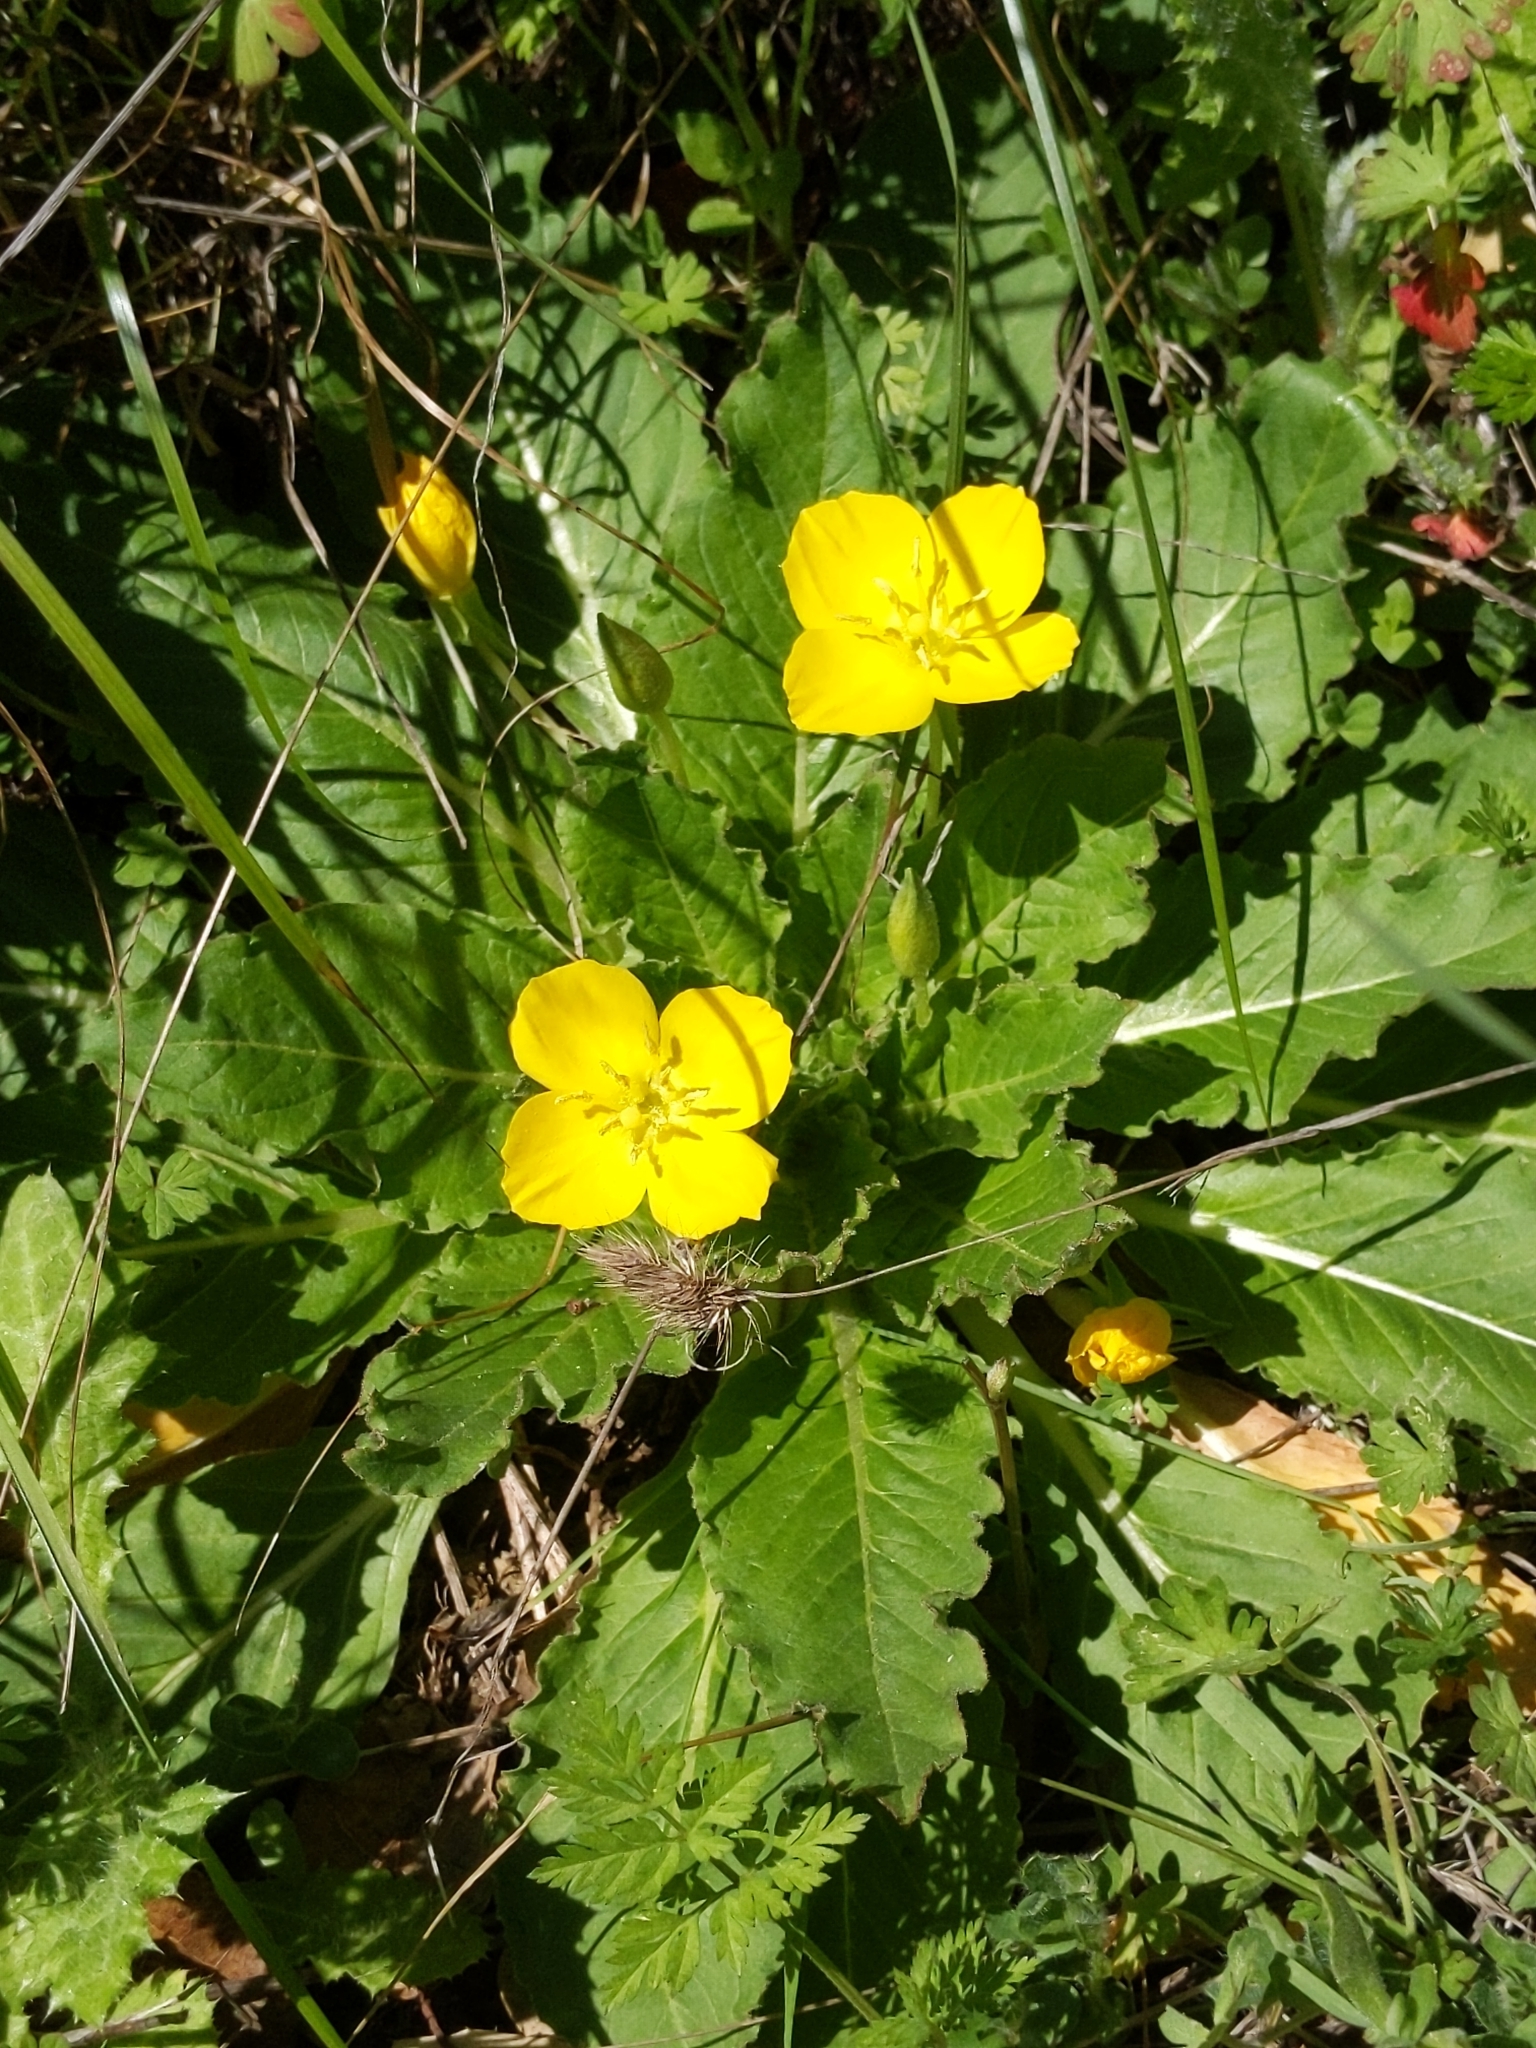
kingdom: Plantae
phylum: Tracheophyta
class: Magnoliopsida
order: Myrtales
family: Onagraceae
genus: Taraxia
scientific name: Taraxia ovata
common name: Goldeneggs
